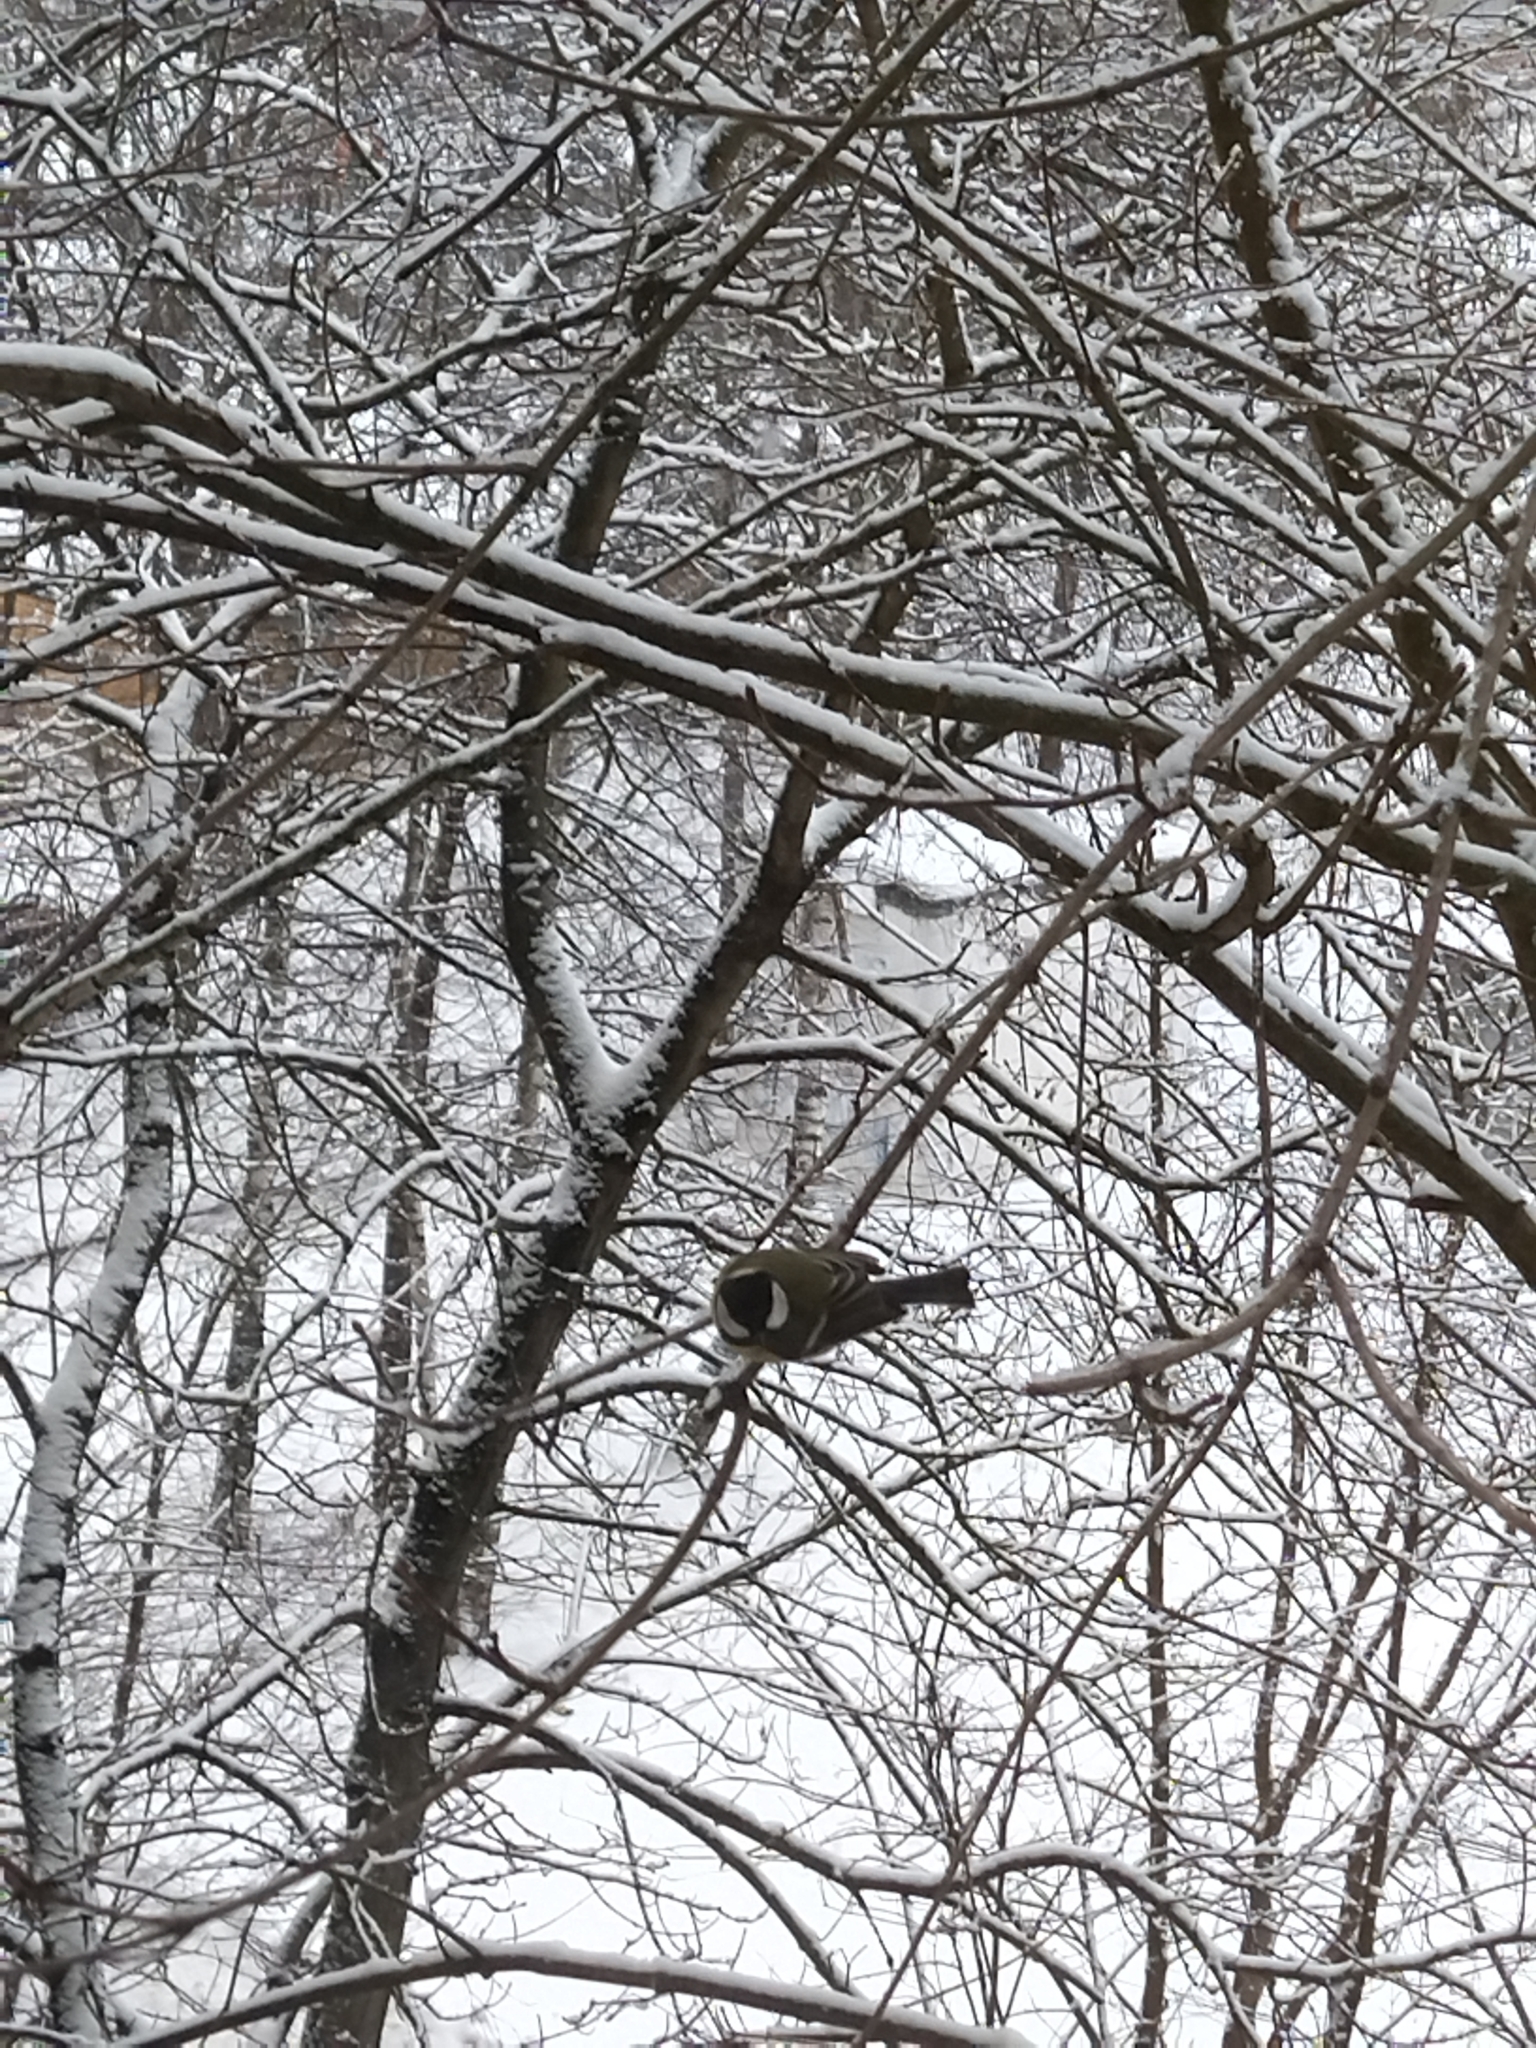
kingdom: Animalia
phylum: Chordata
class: Aves
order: Passeriformes
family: Paridae
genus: Parus
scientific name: Parus major
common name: Great tit
